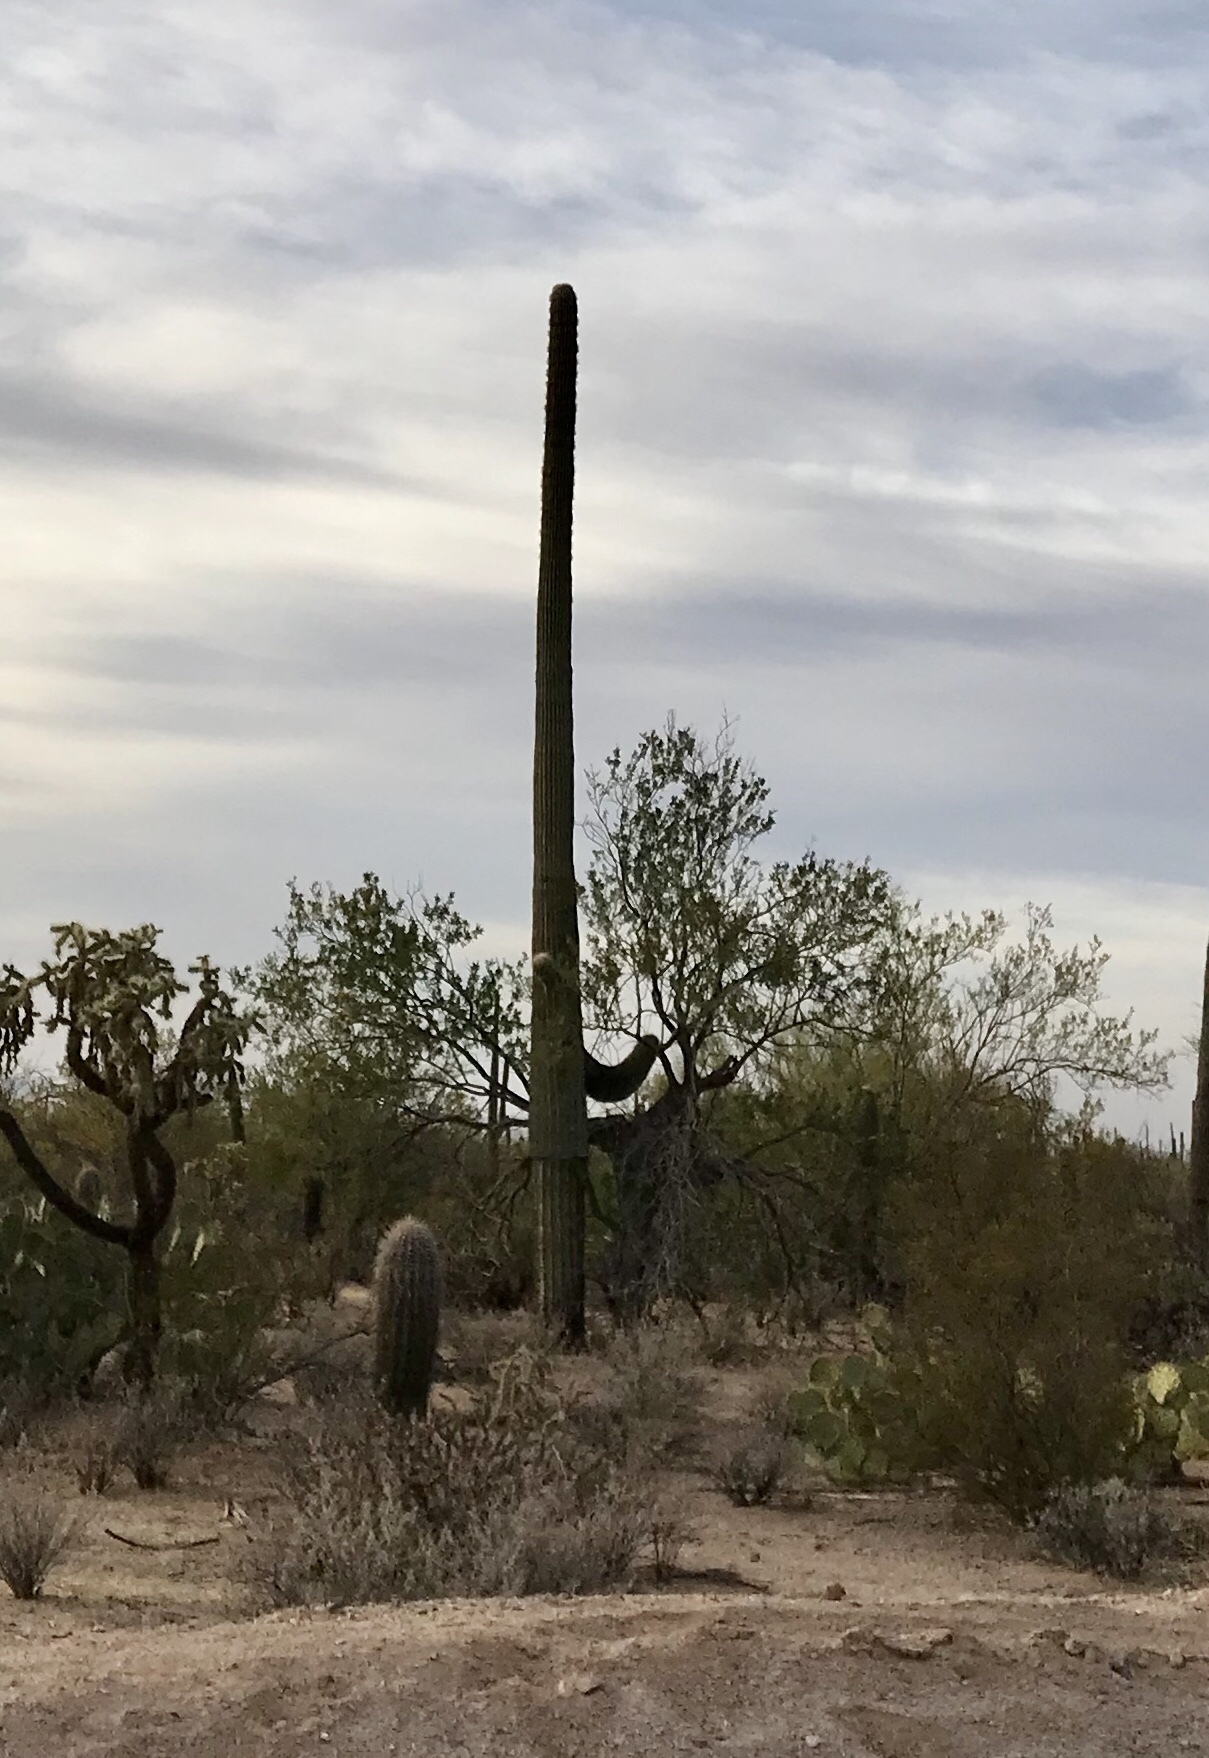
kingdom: Plantae
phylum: Tracheophyta
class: Magnoliopsida
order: Caryophyllales
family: Cactaceae
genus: Carnegiea
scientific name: Carnegiea gigantea
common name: Saguaro
